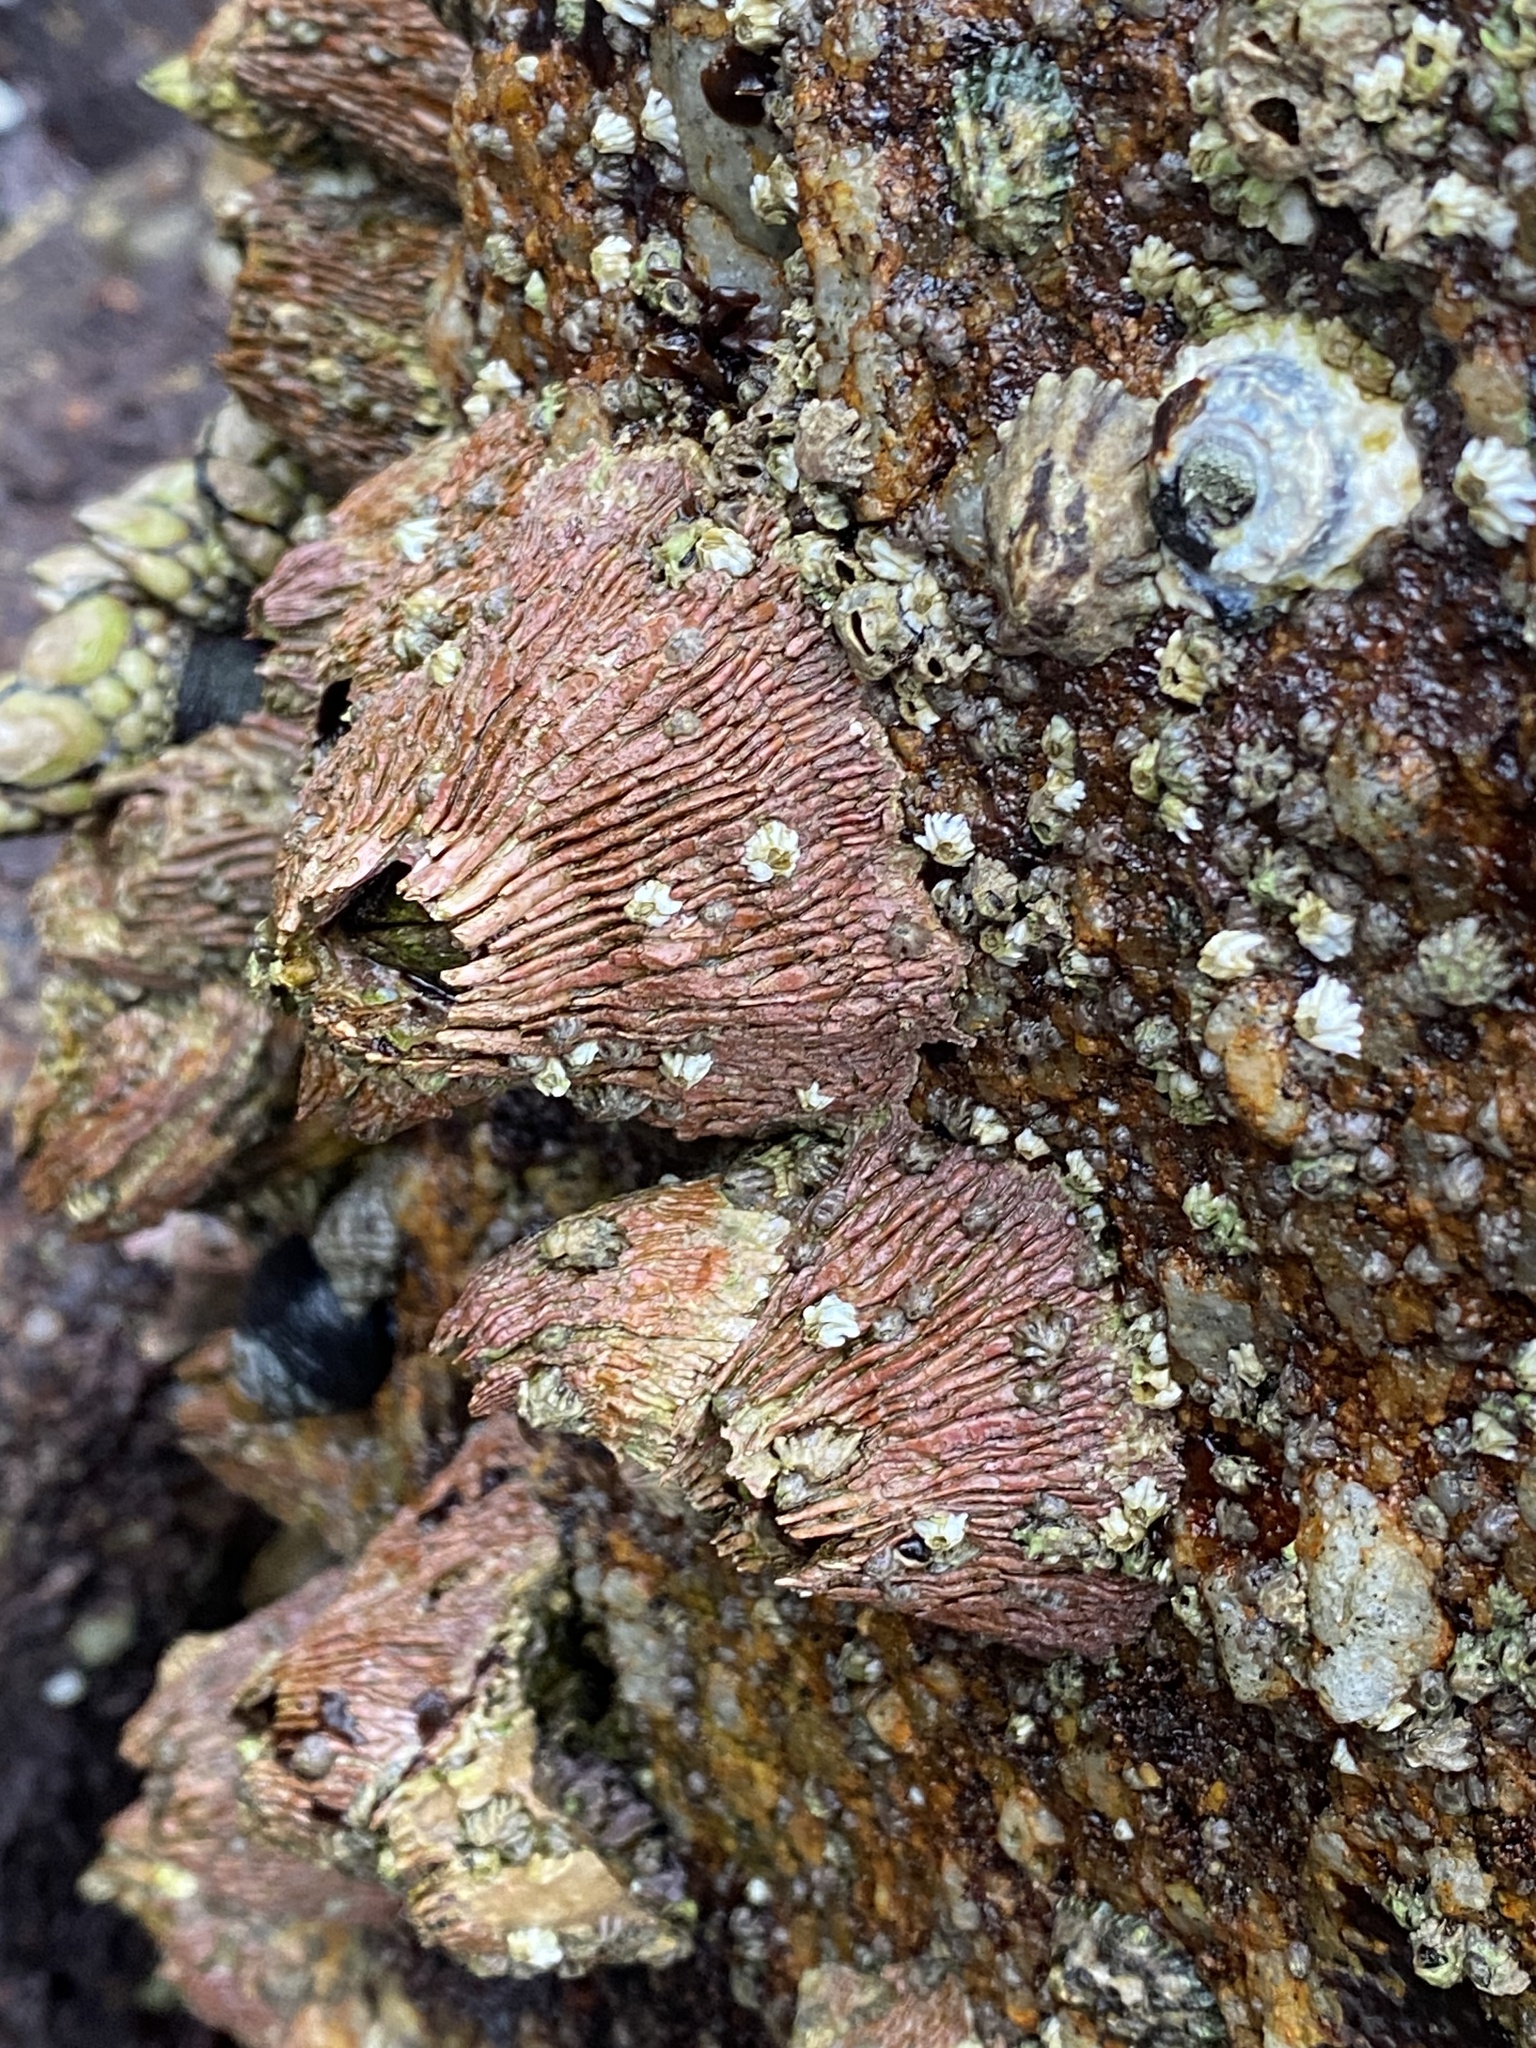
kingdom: Animalia
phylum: Arthropoda
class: Maxillopoda
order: Sessilia
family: Tetraclitidae
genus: Tetraclita
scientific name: Tetraclita rubescens
